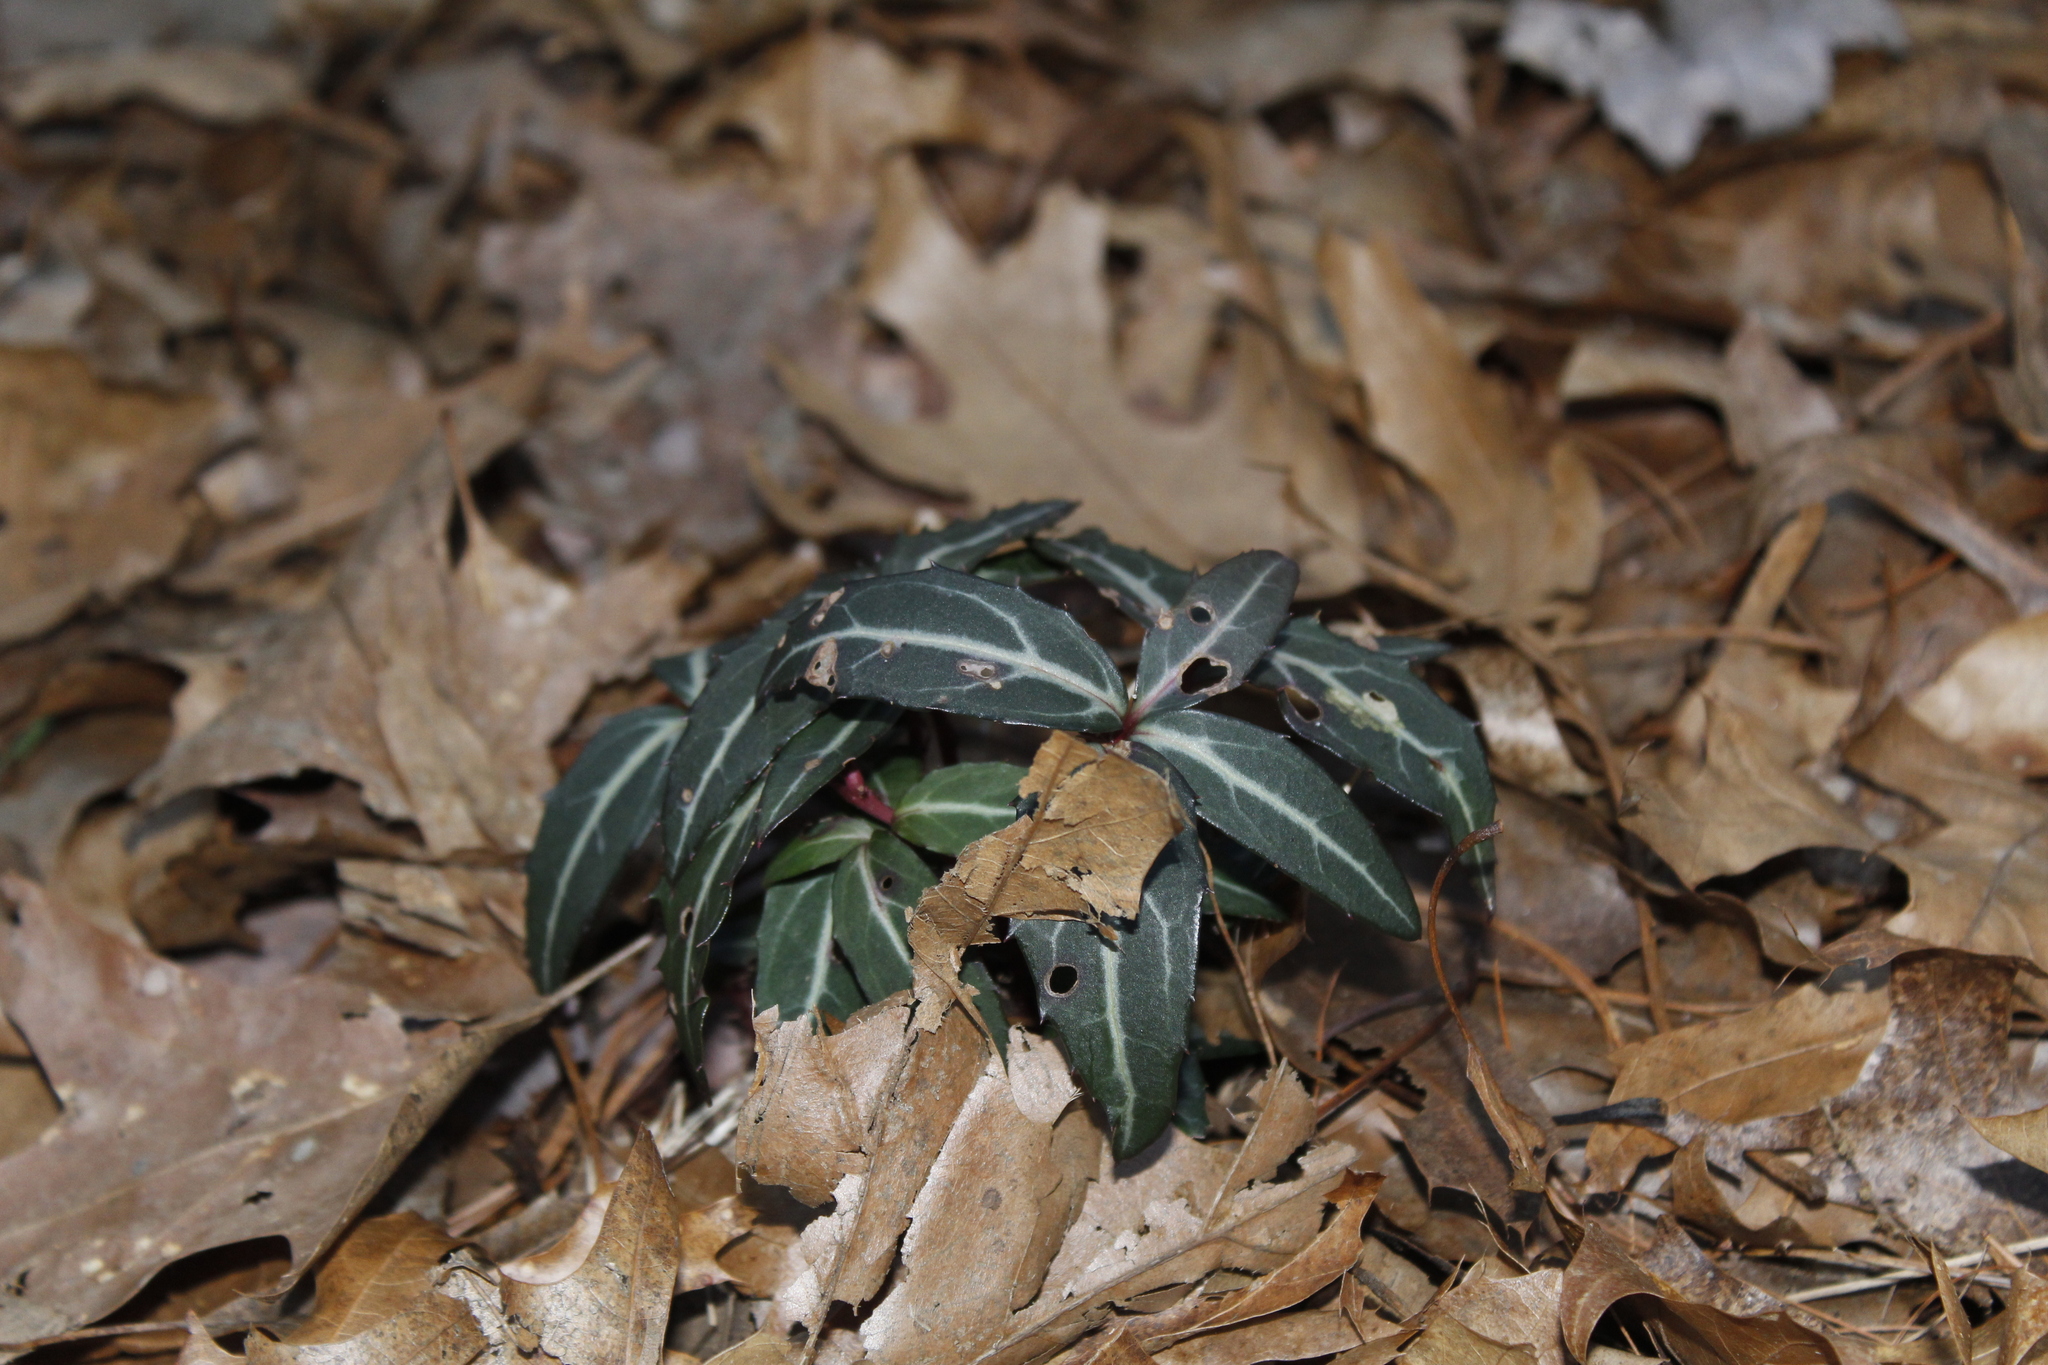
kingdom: Plantae
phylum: Tracheophyta
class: Magnoliopsida
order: Ericales
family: Ericaceae
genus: Chimaphila
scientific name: Chimaphila maculata
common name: Spotted pipsissewa
